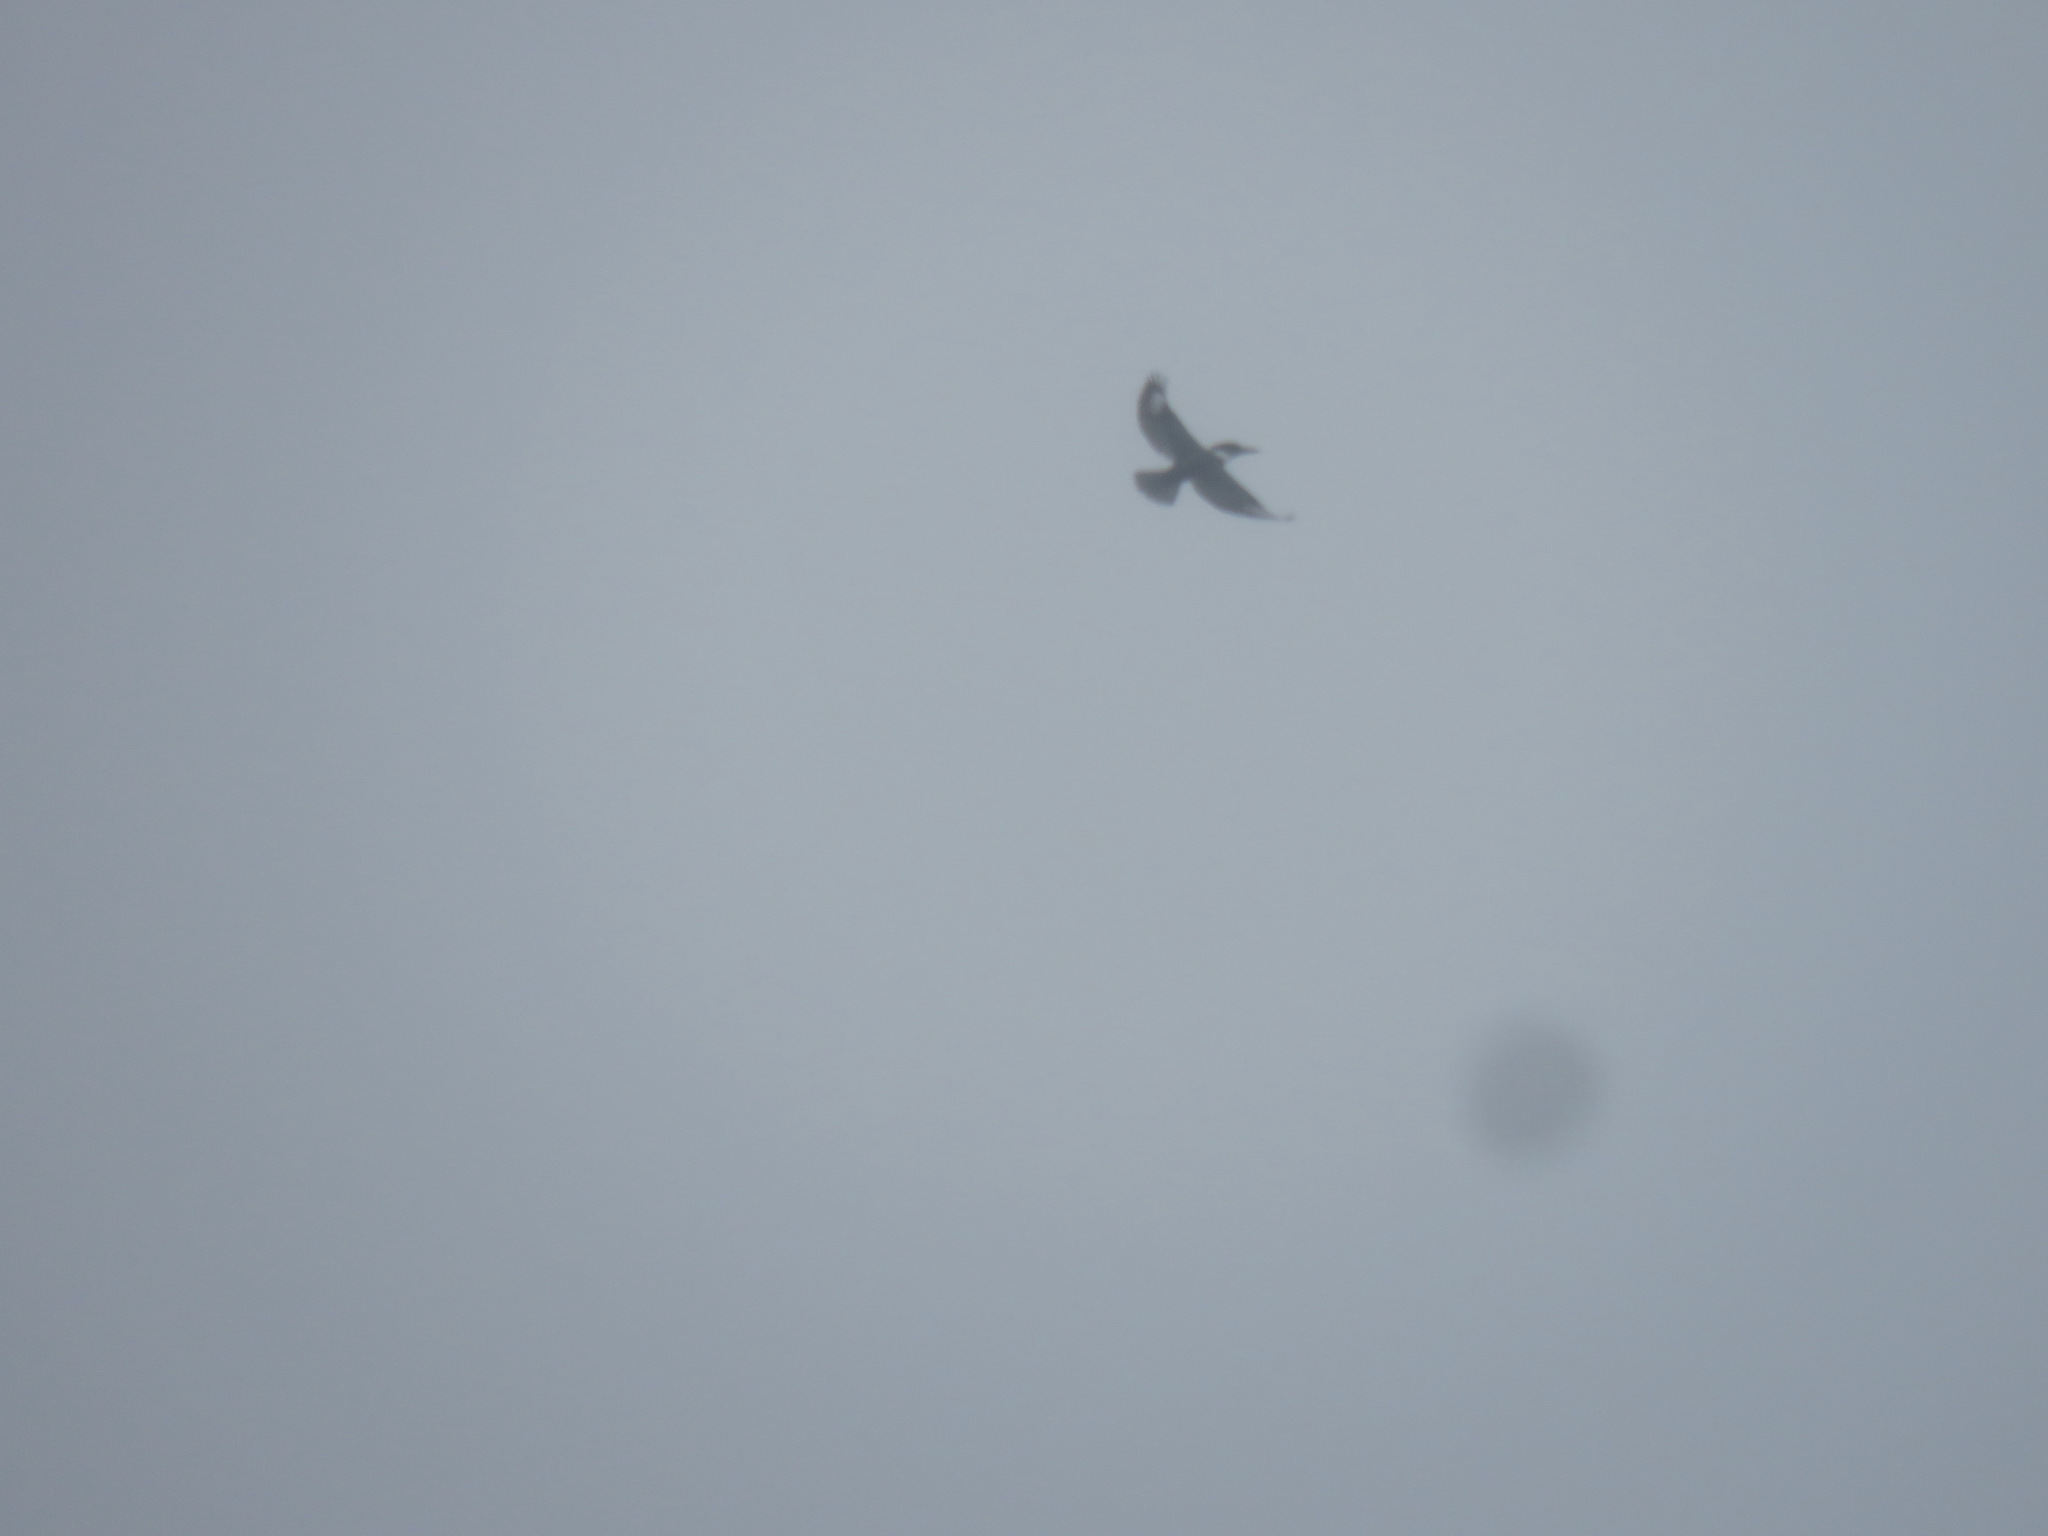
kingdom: Animalia
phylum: Chordata
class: Aves
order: Coraciiformes
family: Alcedinidae
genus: Megaceryle
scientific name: Megaceryle alcyon
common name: Belted kingfisher
